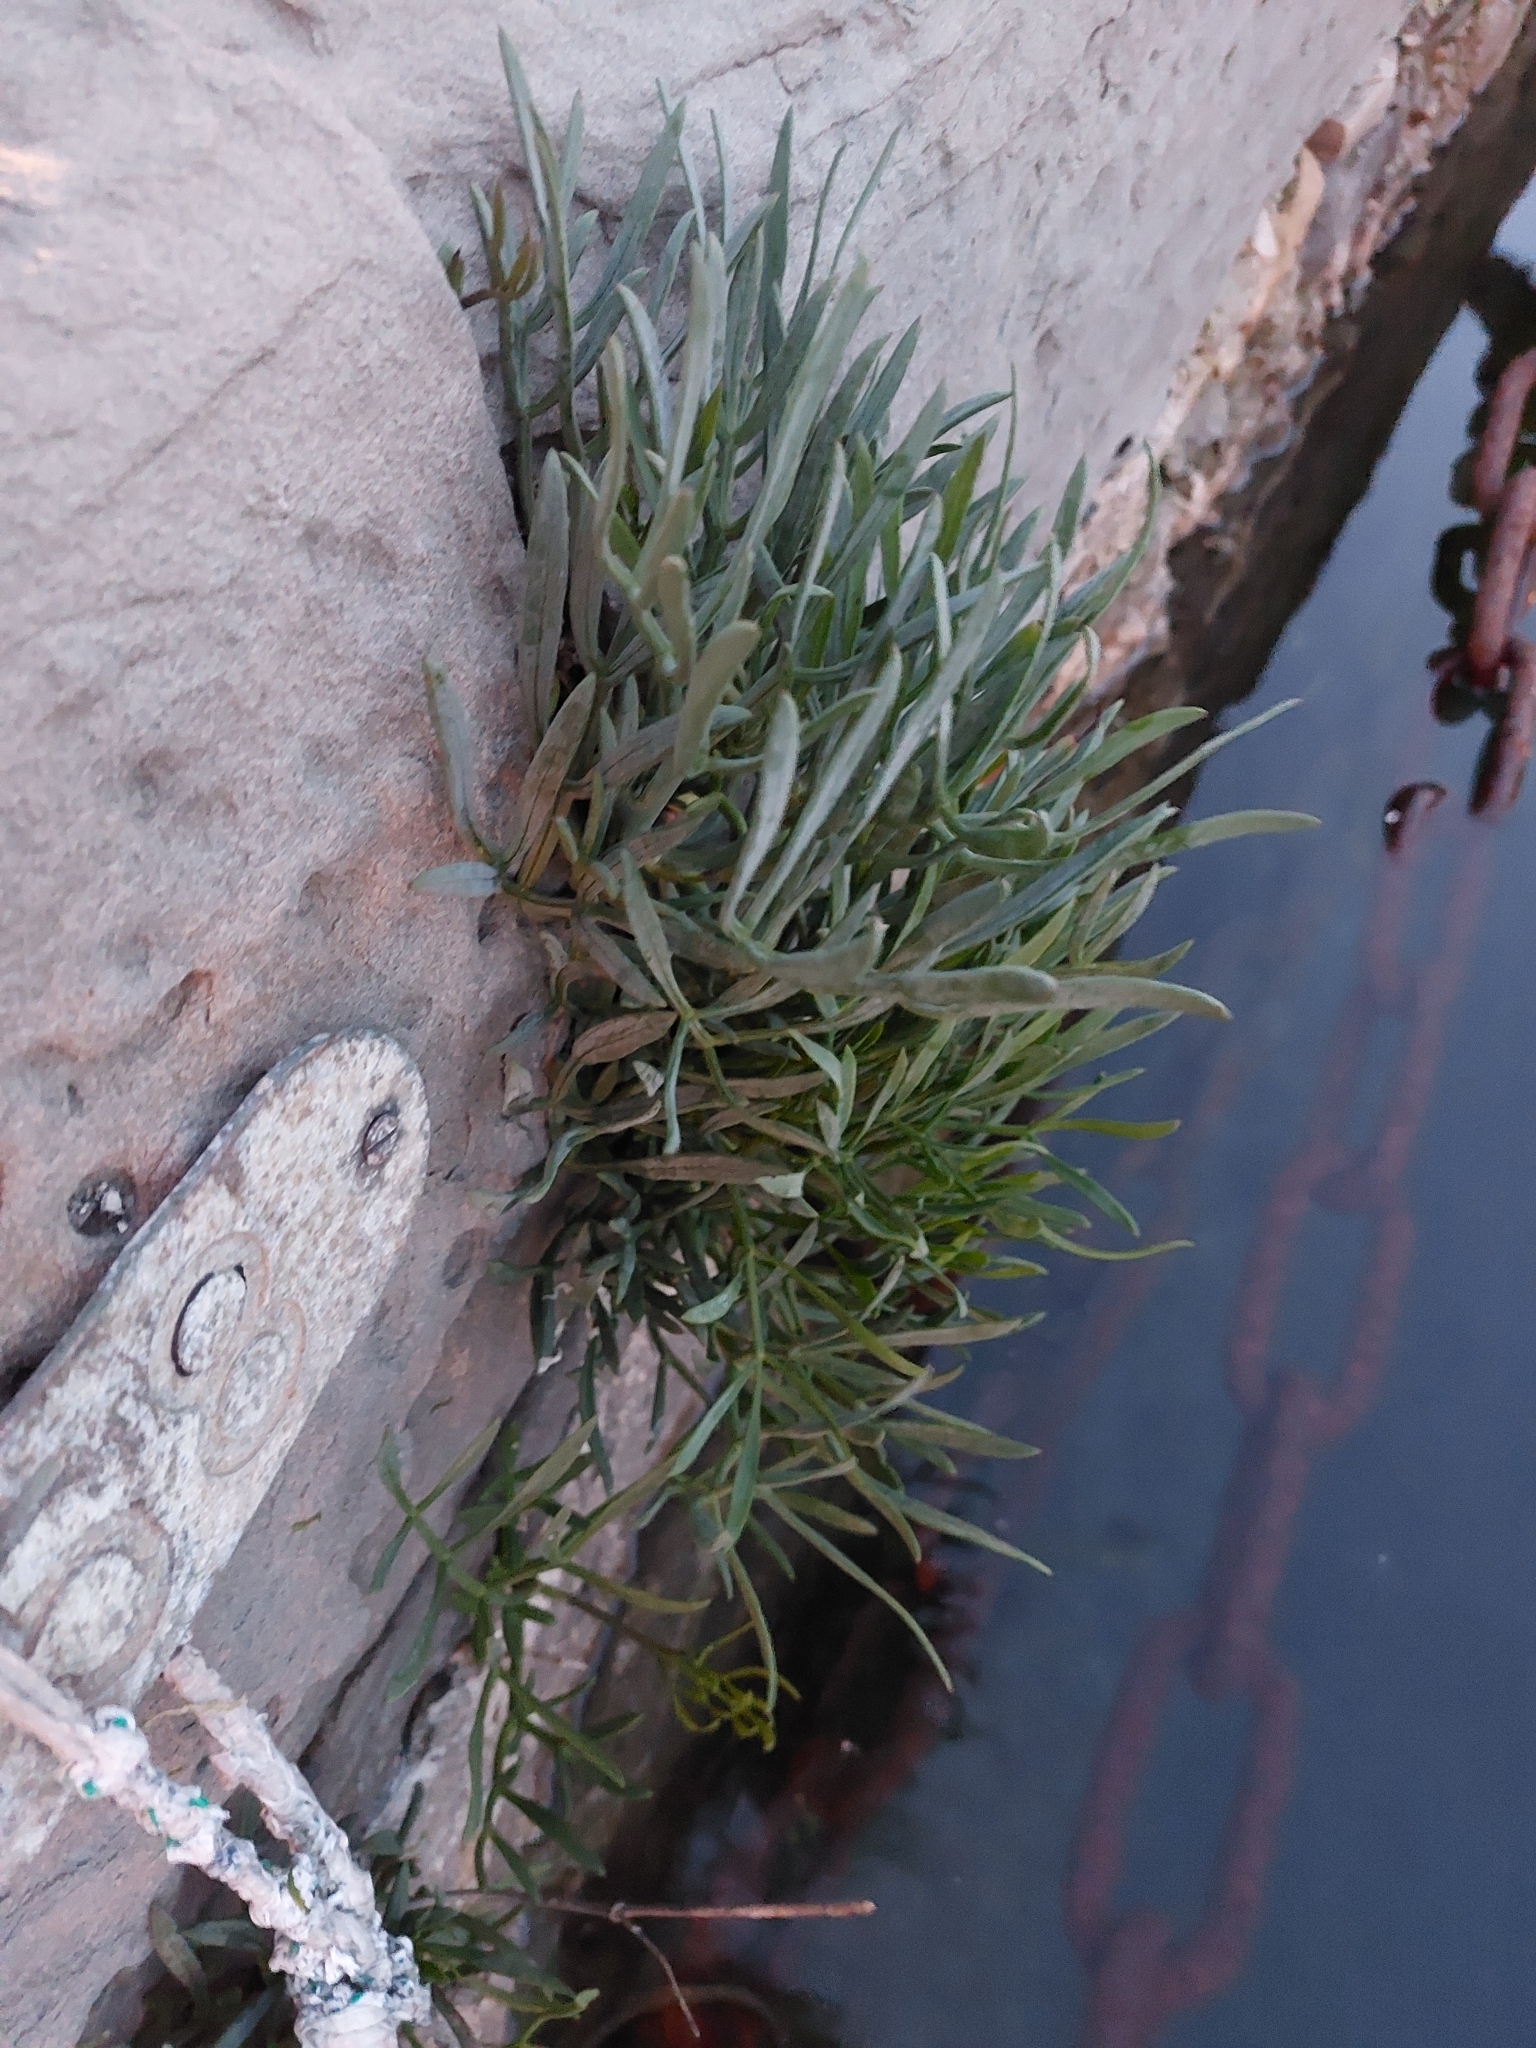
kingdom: Plantae
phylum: Tracheophyta
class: Magnoliopsida
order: Apiales
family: Apiaceae
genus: Crithmum
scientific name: Crithmum maritimum
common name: Rock samphire
